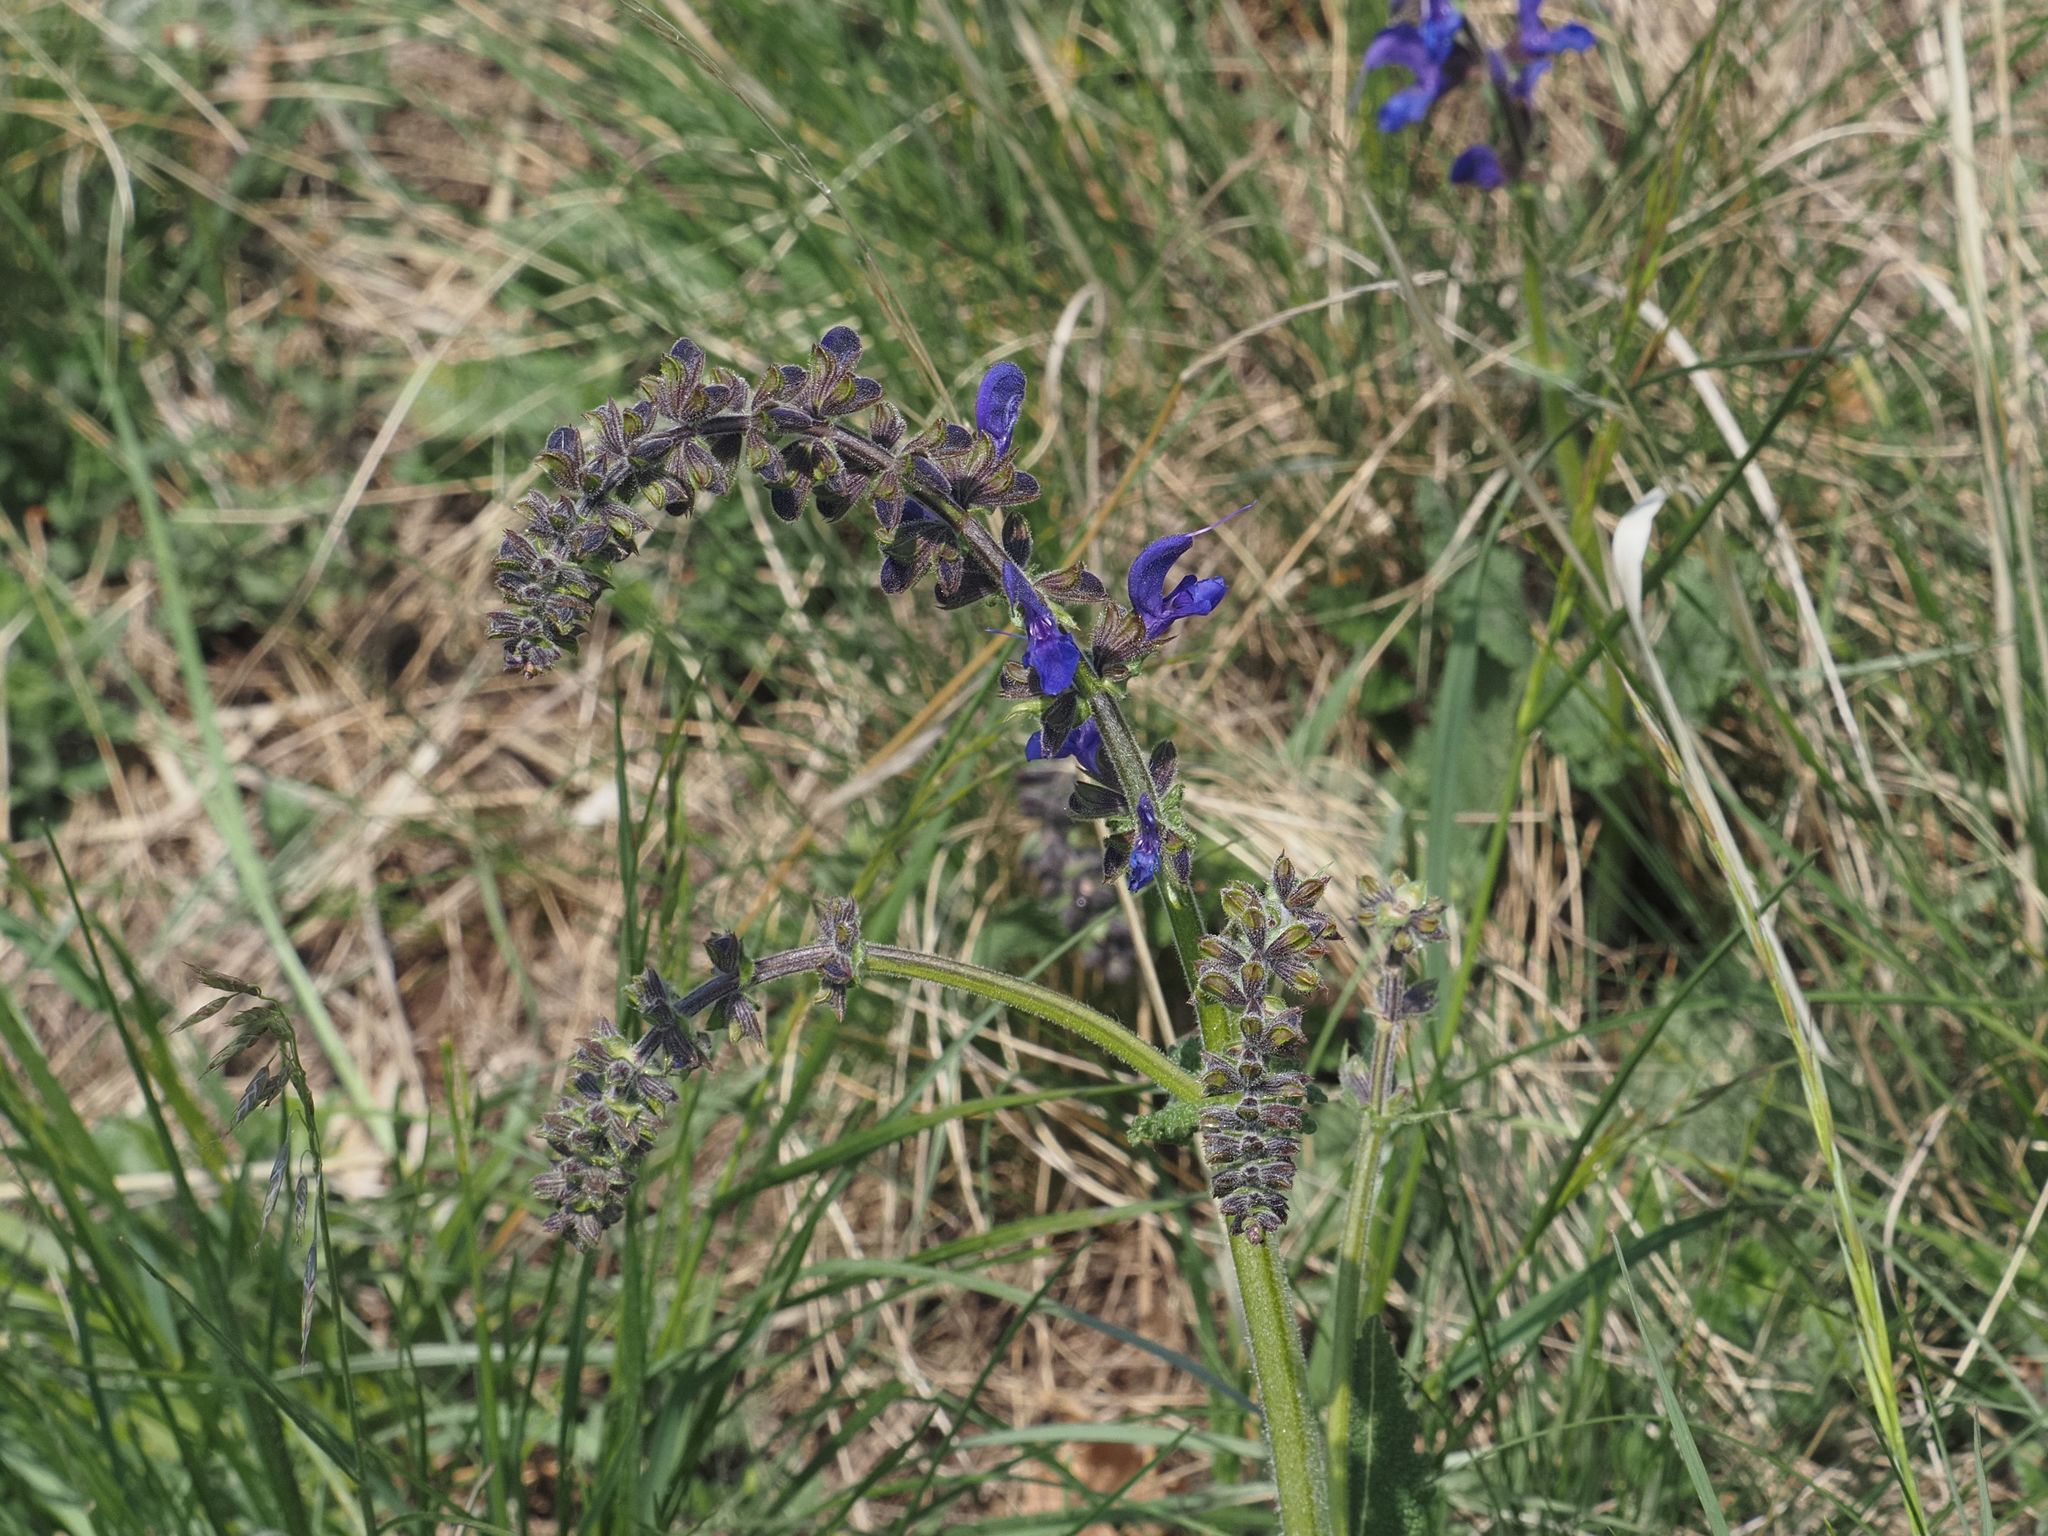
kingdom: Plantae
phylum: Tracheophyta
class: Magnoliopsida
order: Lamiales
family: Lamiaceae
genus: Salvia
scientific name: Salvia pratensis
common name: Meadow sage
